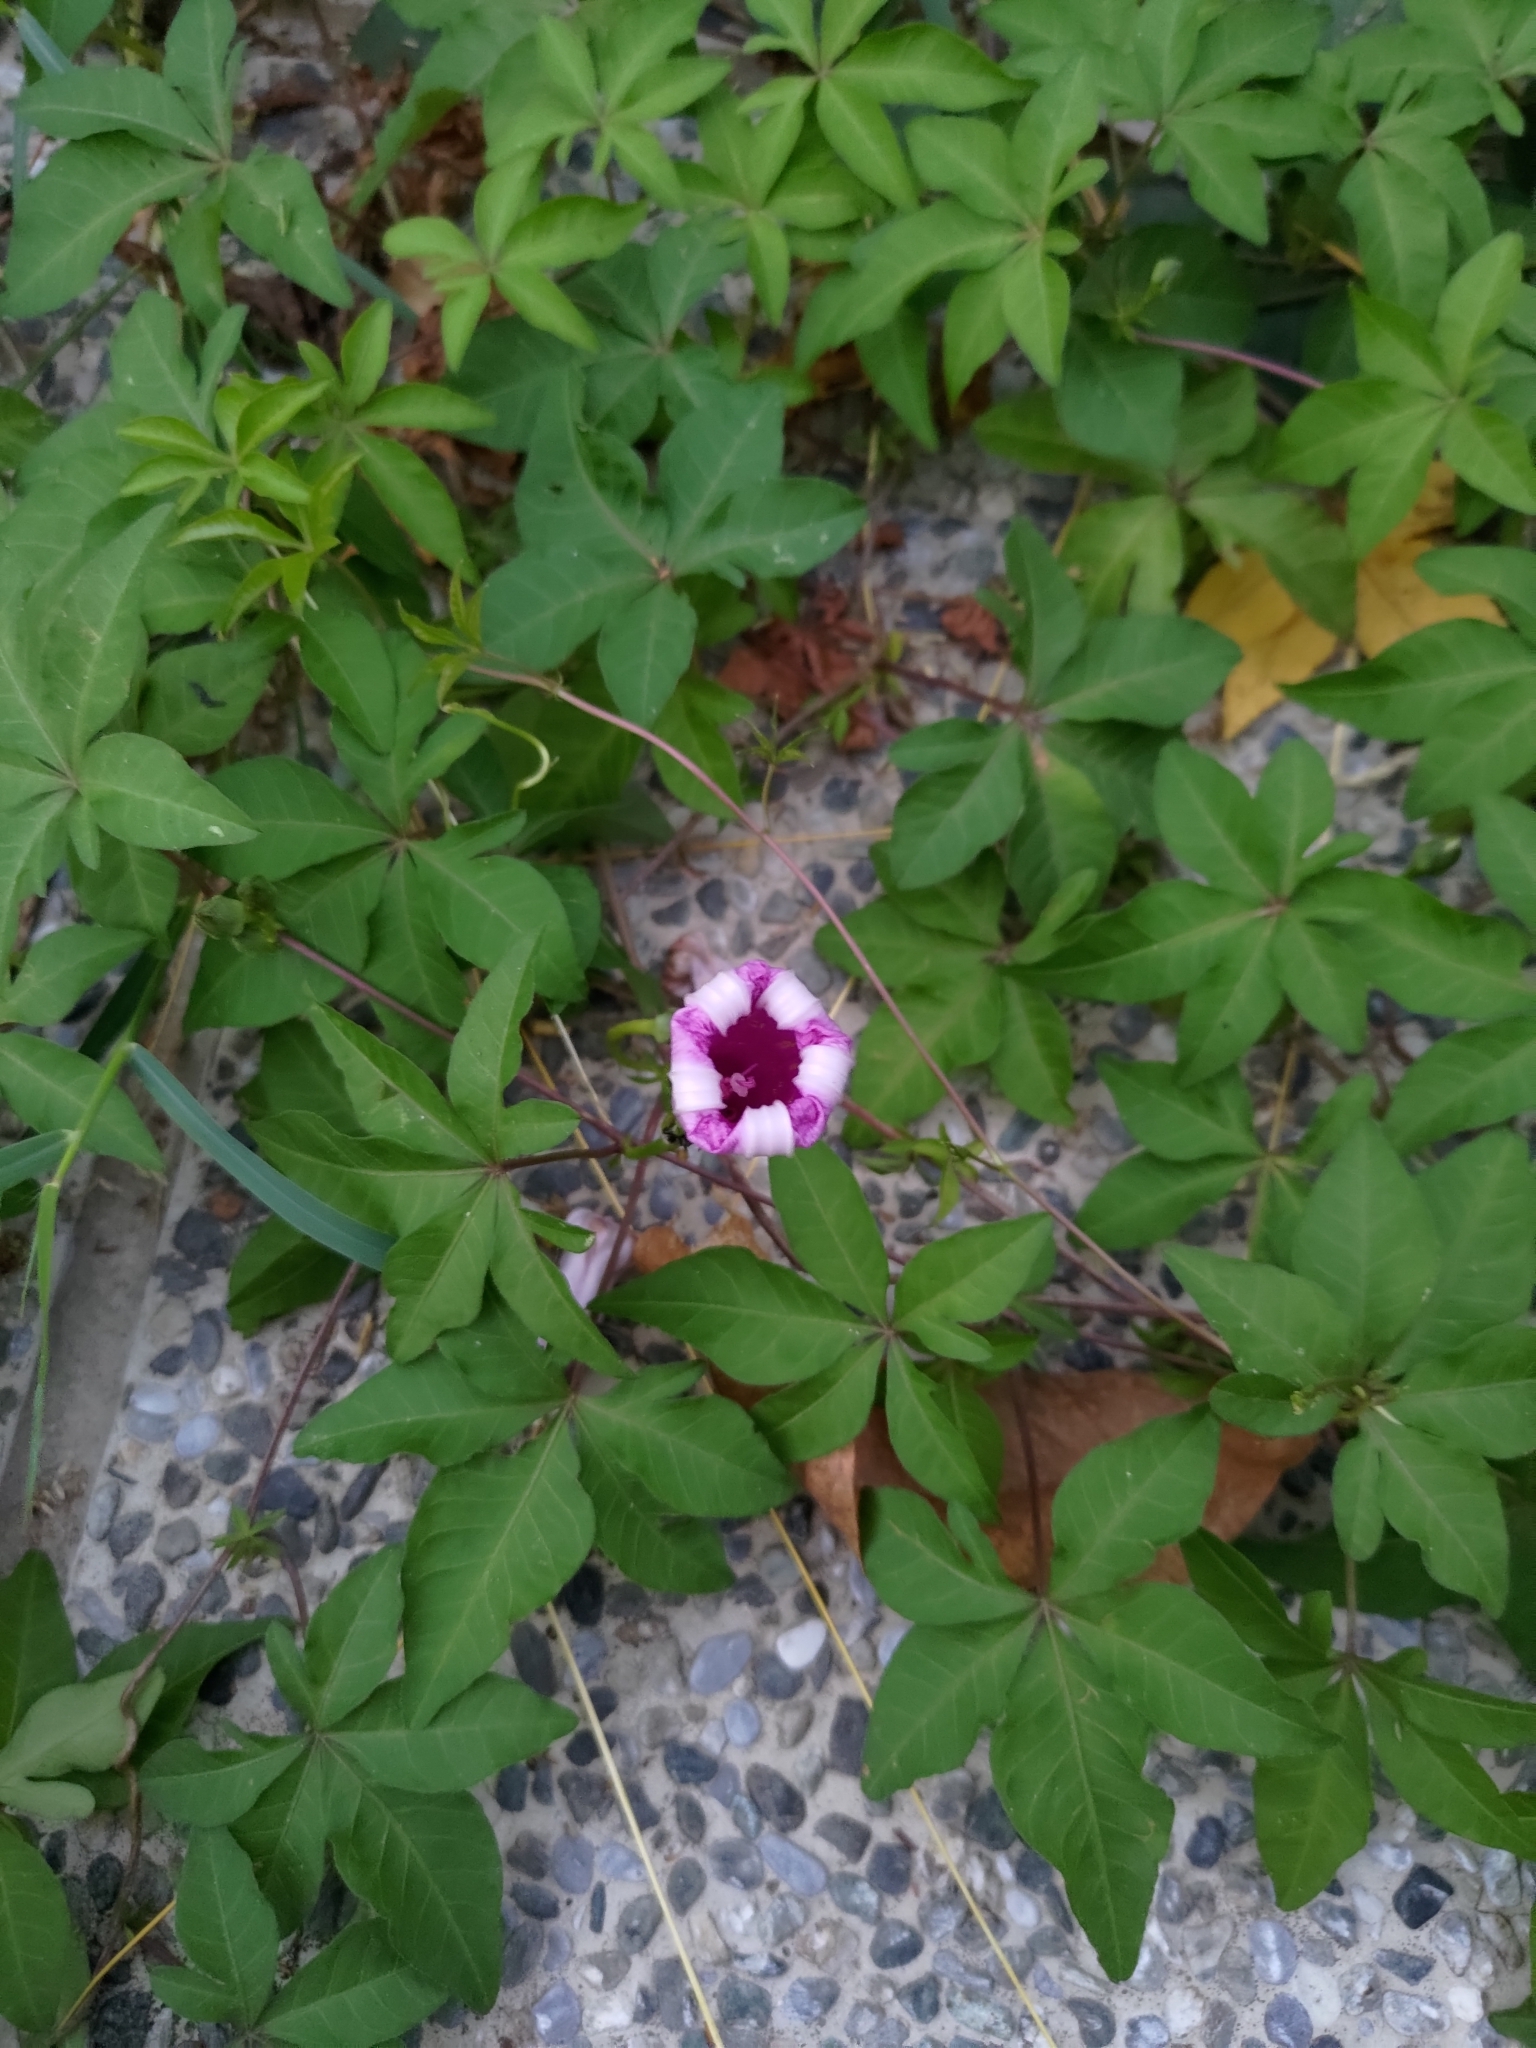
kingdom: Plantae
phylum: Tracheophyta
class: Magnoliopsida
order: Solanales
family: Convolvulaceae
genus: Ipomoea
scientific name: Ipomoea cairica
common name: Mile a minute vine
